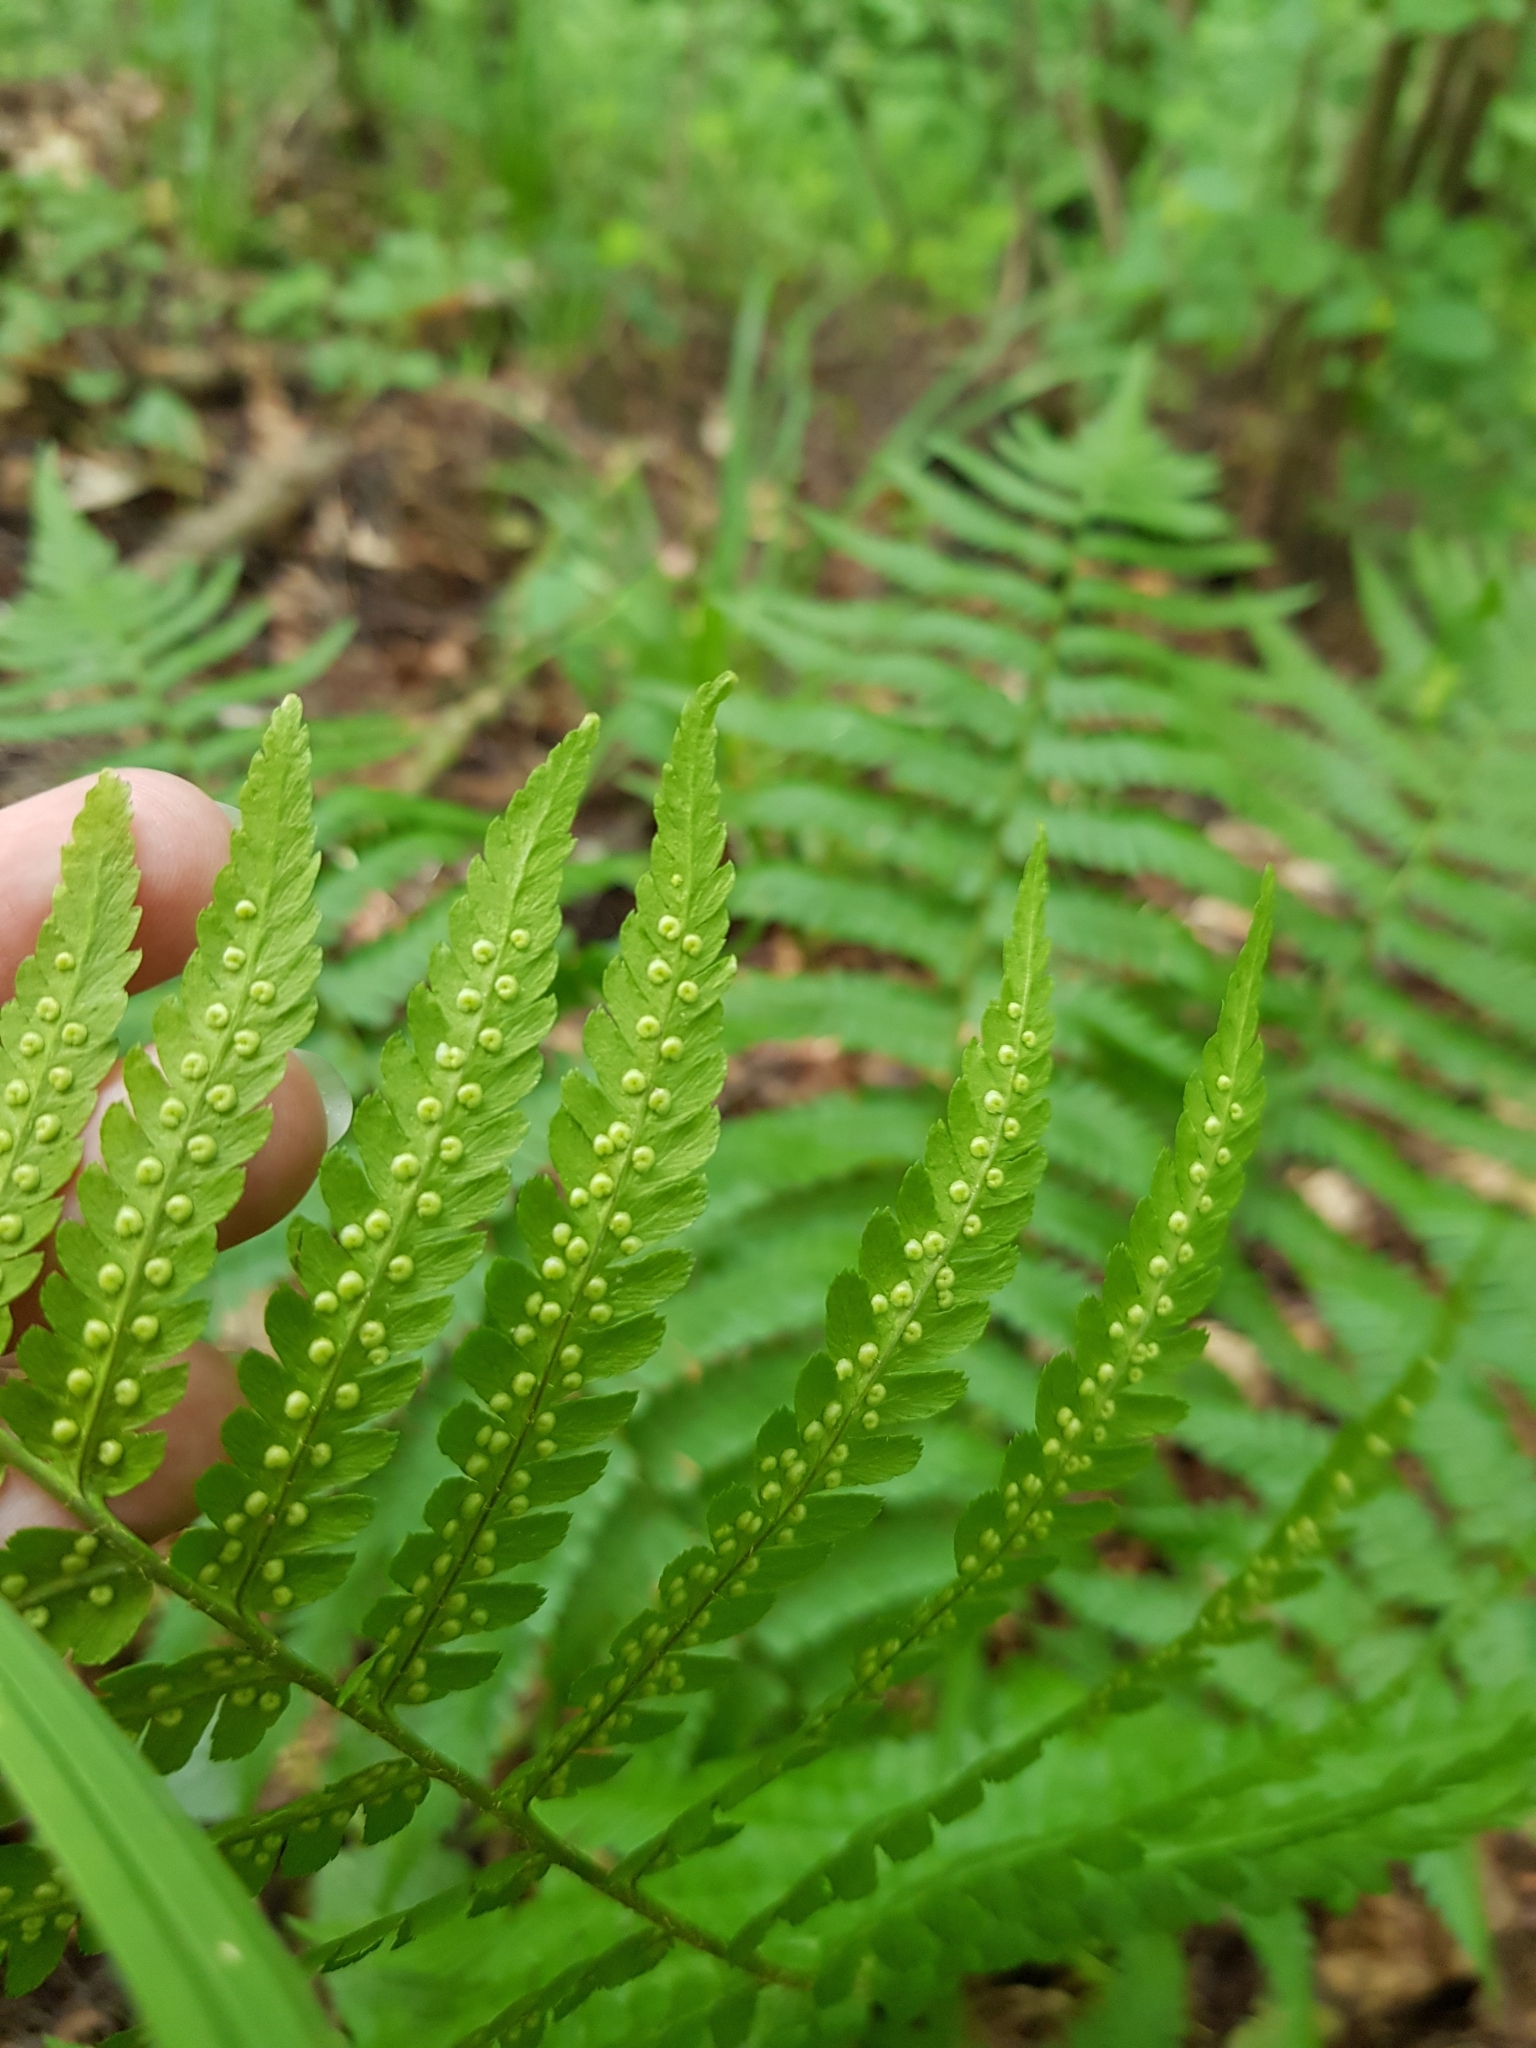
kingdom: Plantae
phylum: Tracheophyta
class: Polypodiopsida
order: Polypodiales
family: Dryopteridaceae
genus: Dryopteris
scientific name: Dryopteris filix-mas
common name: Male fern
